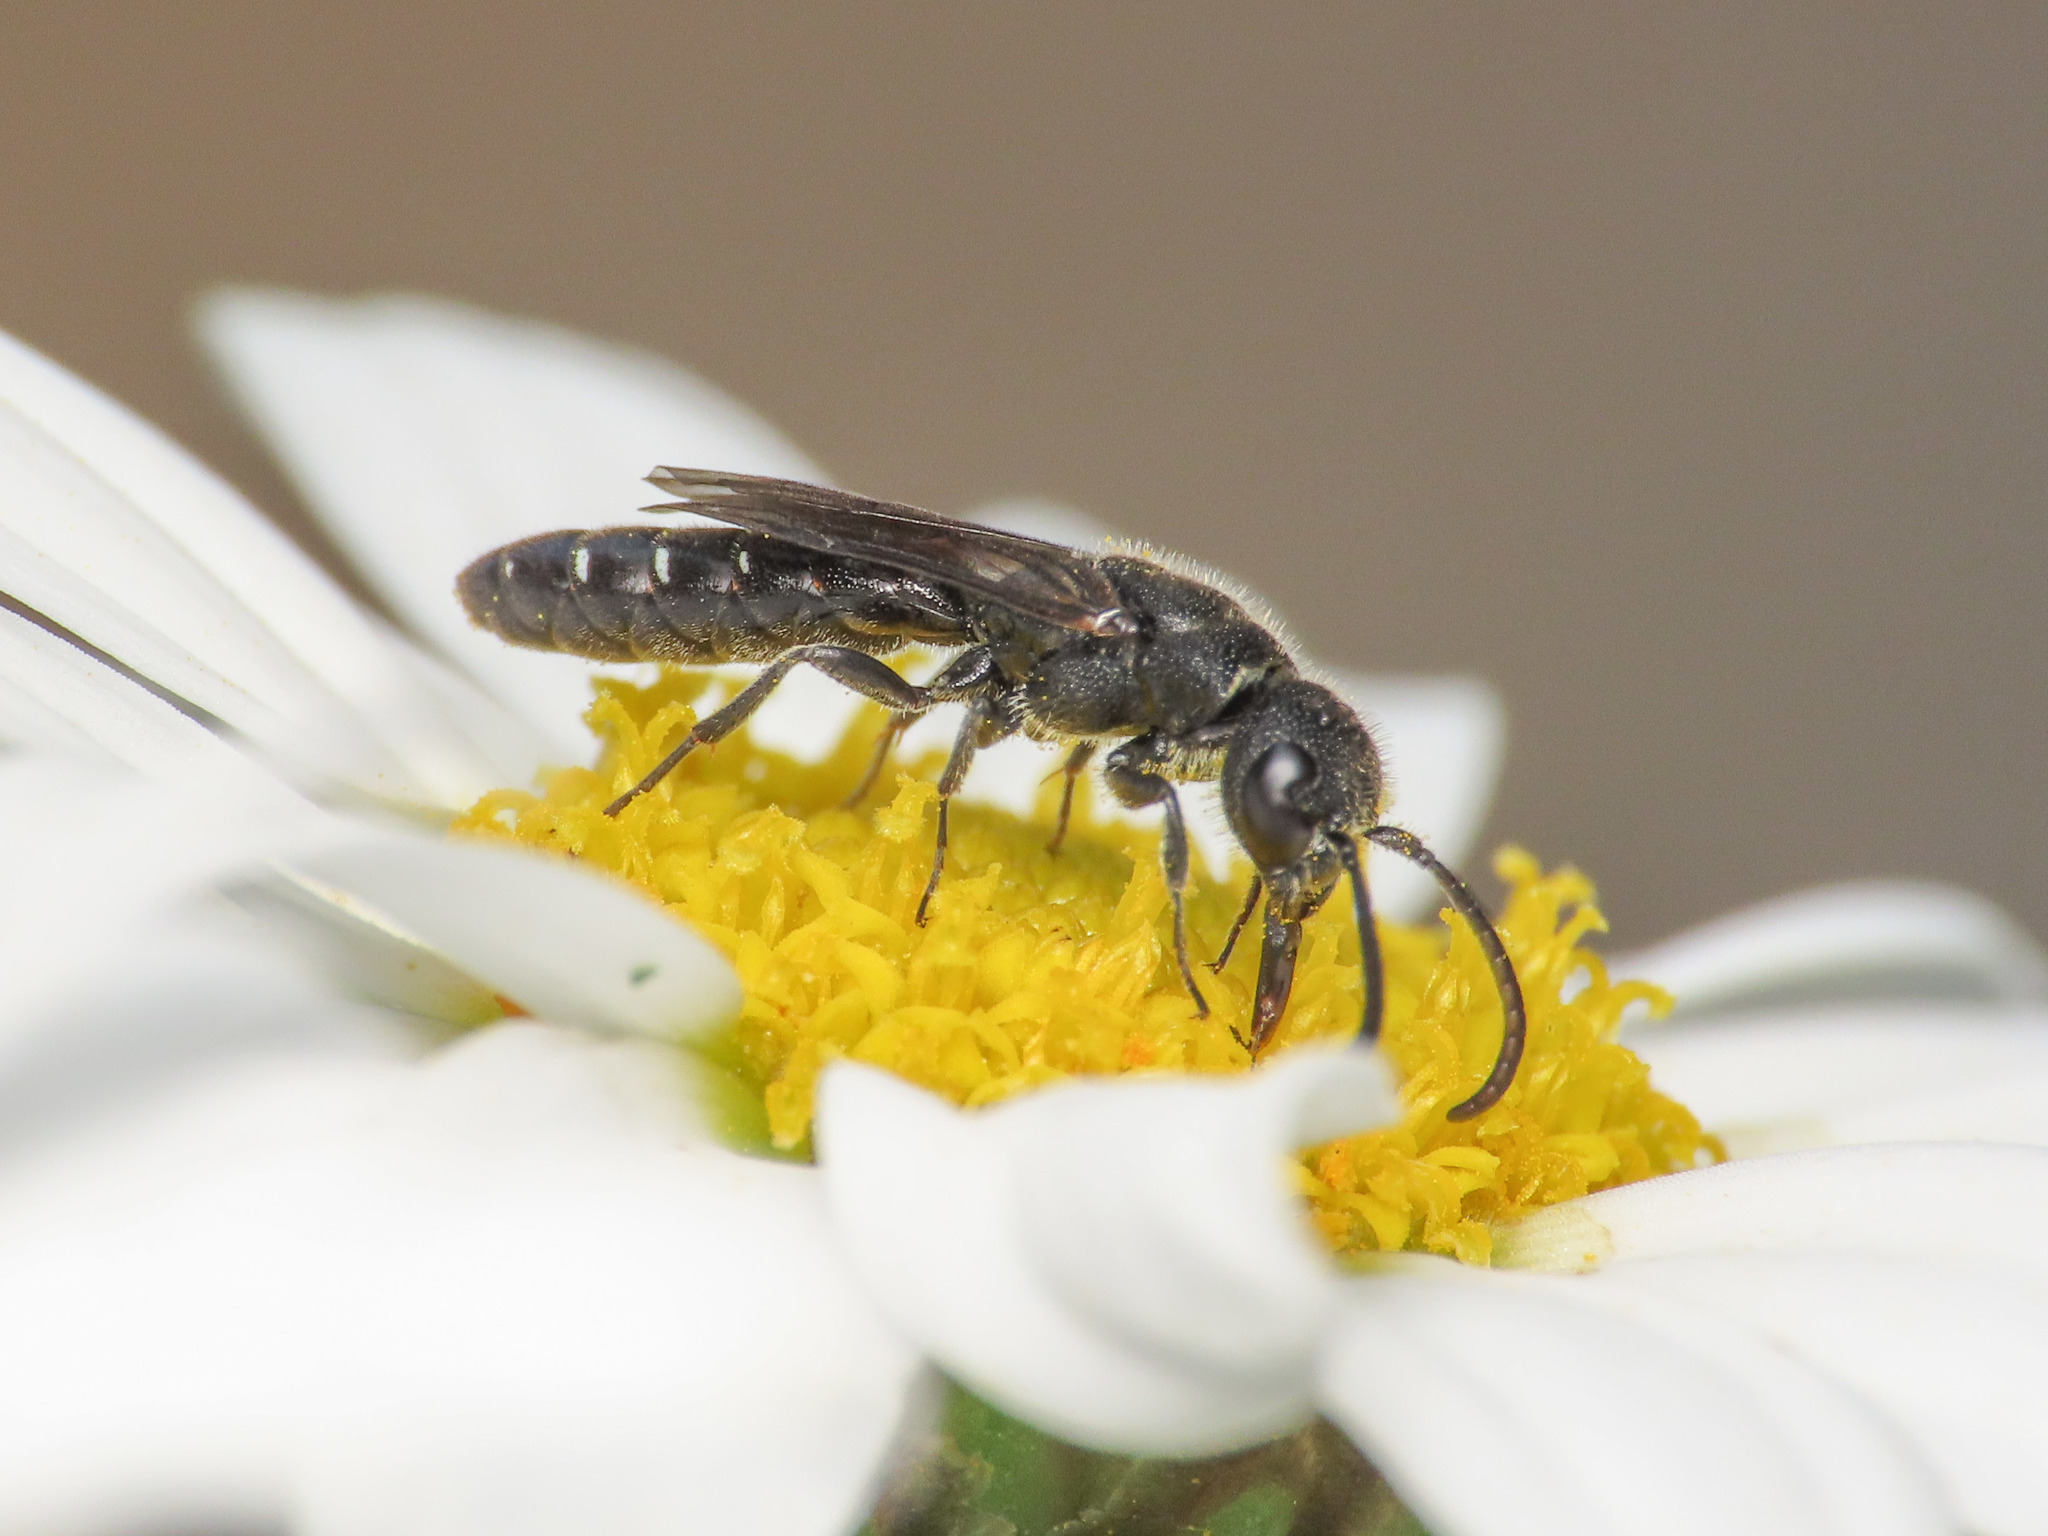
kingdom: Animalia
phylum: Arthropoda
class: Insecta
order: Hymenoptera
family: Sapygidae
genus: Sapygina
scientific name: Sapygina decemguttata
